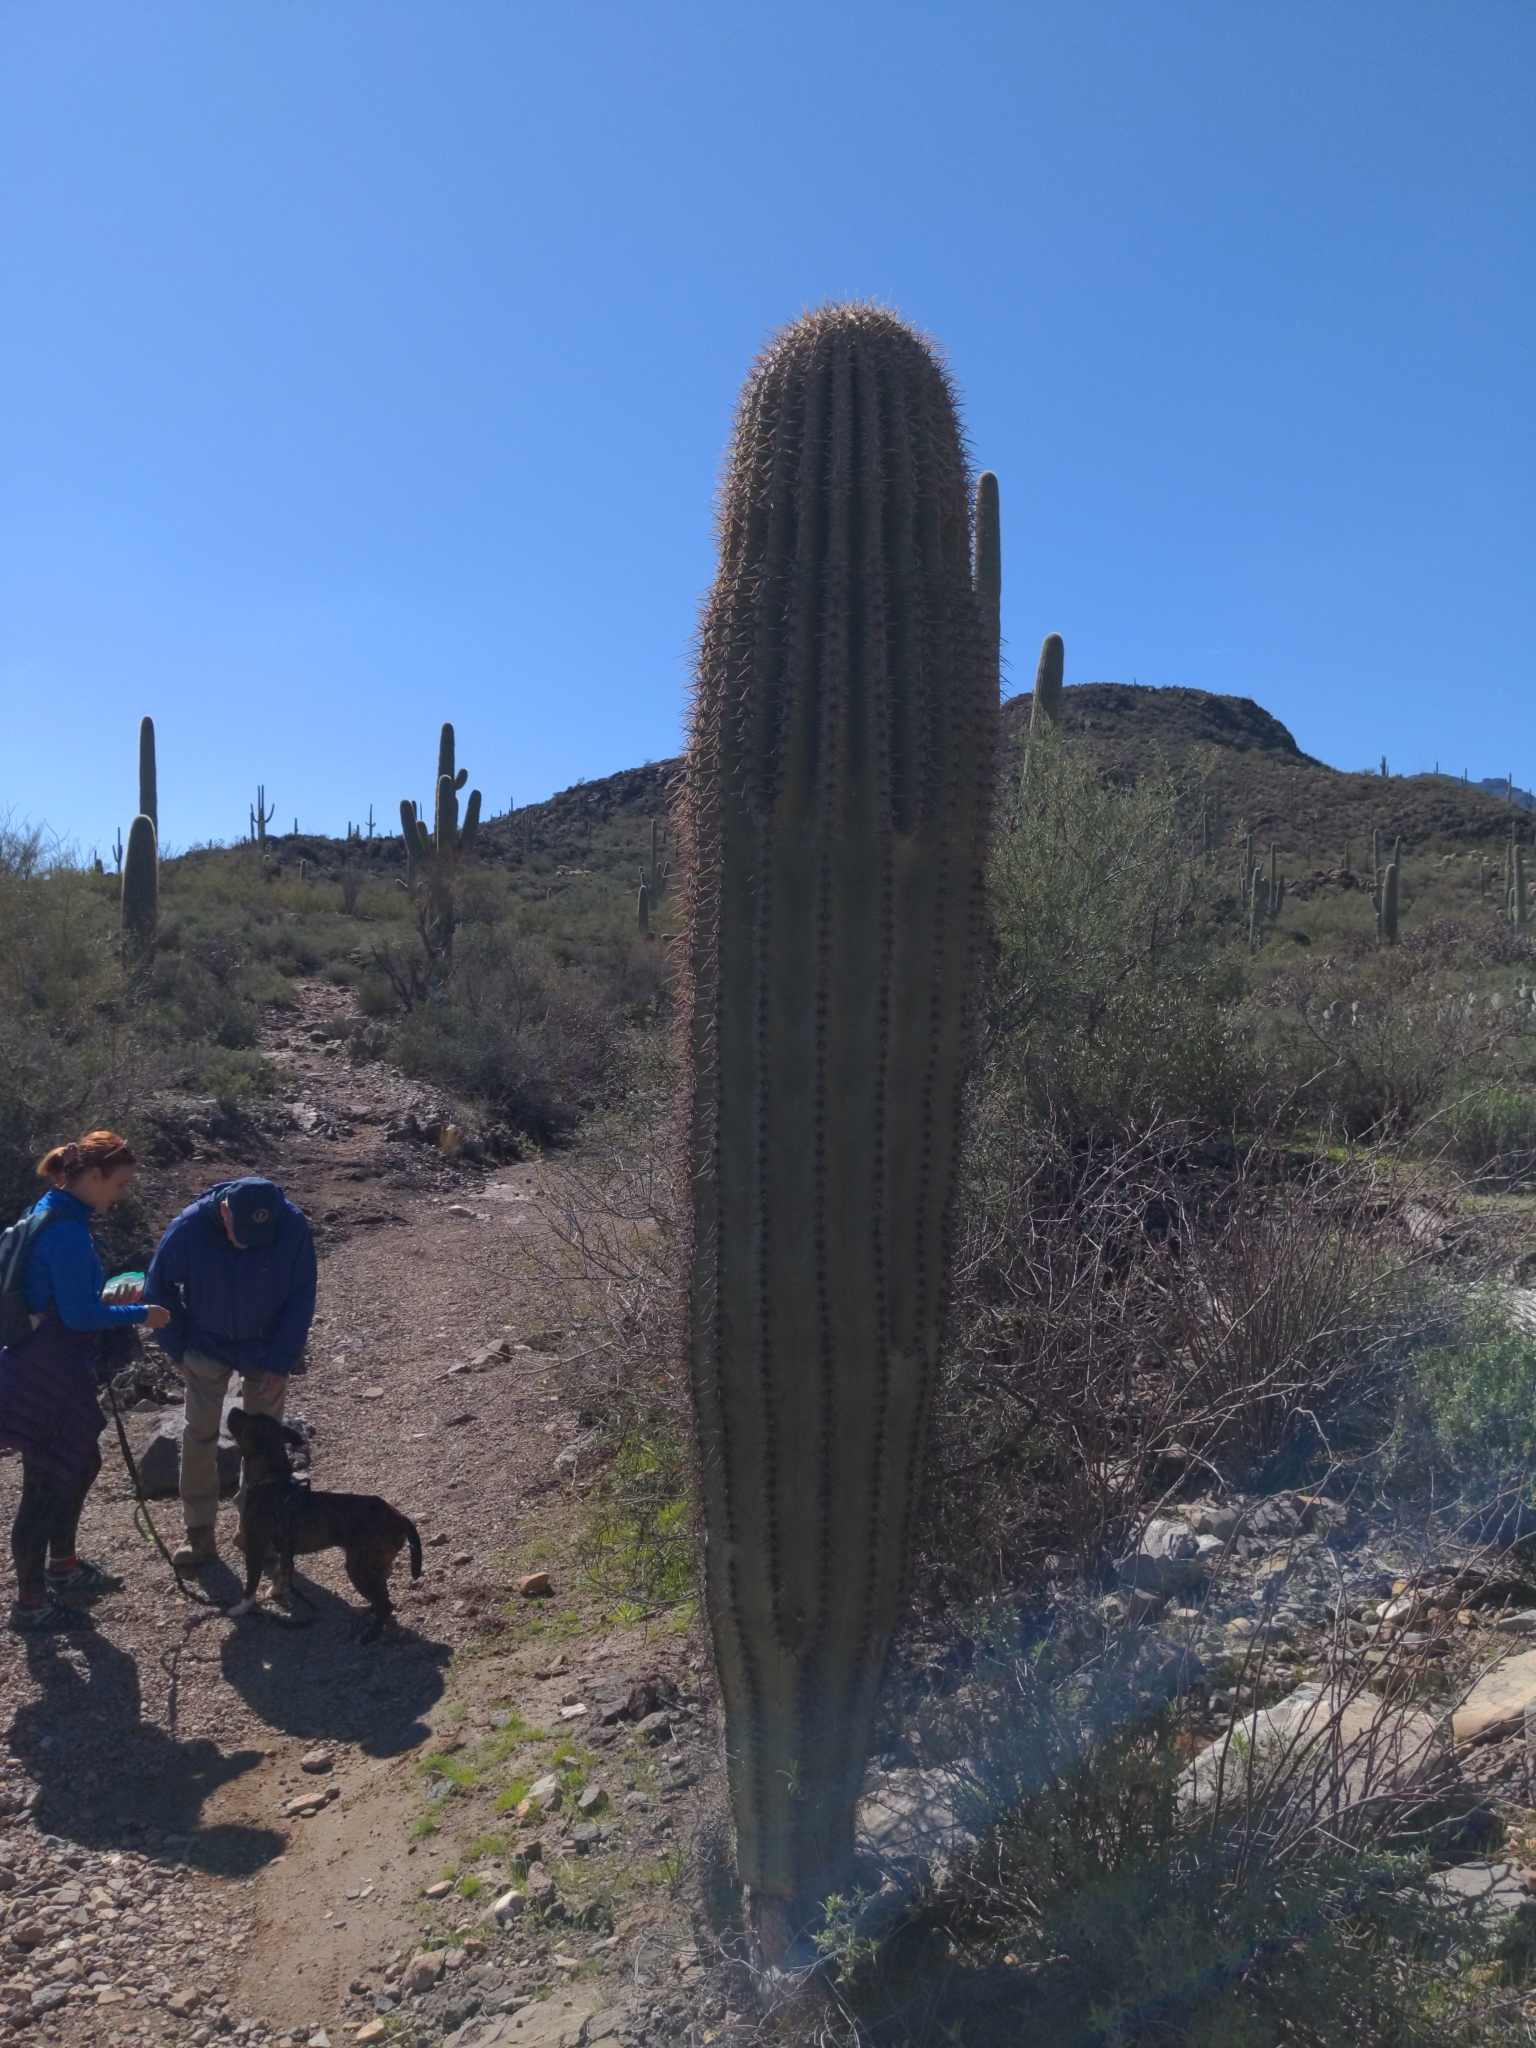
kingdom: Plantae
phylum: Tracheophyta
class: Magnoliopsida
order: Caryophyllales
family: Cactaceae
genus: Carnegiea
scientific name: Carnegiea gigantea
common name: Saguaro
